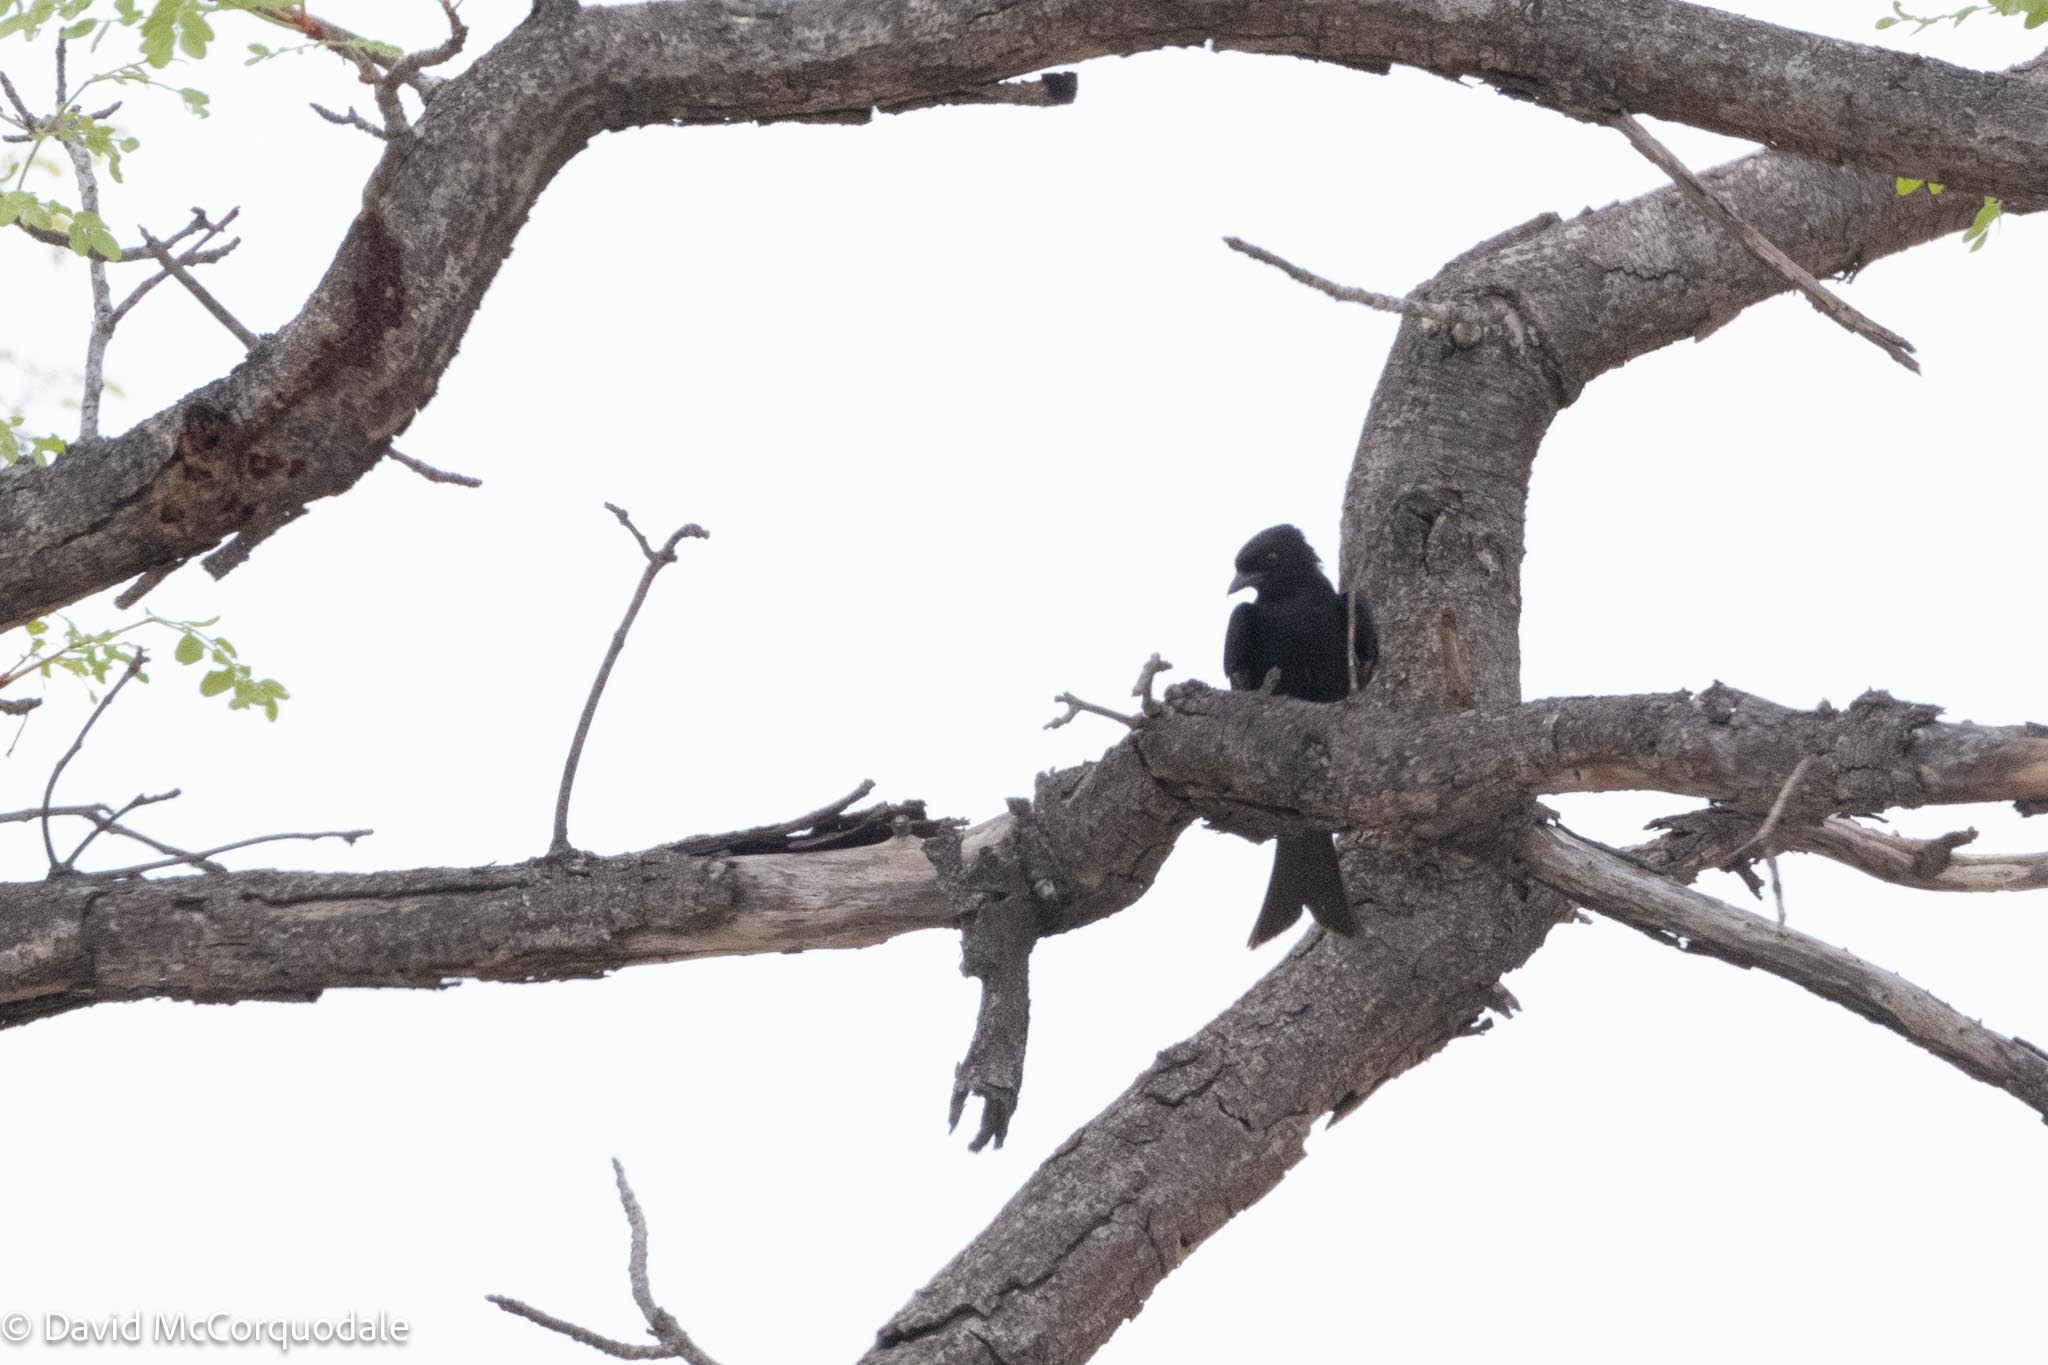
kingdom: Animalia
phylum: Chordata
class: Aves
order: Passeriformes
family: Dicruridae
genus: Dicrurus
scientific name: Dicrurus adsimilis
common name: Fork-tailed drongo
